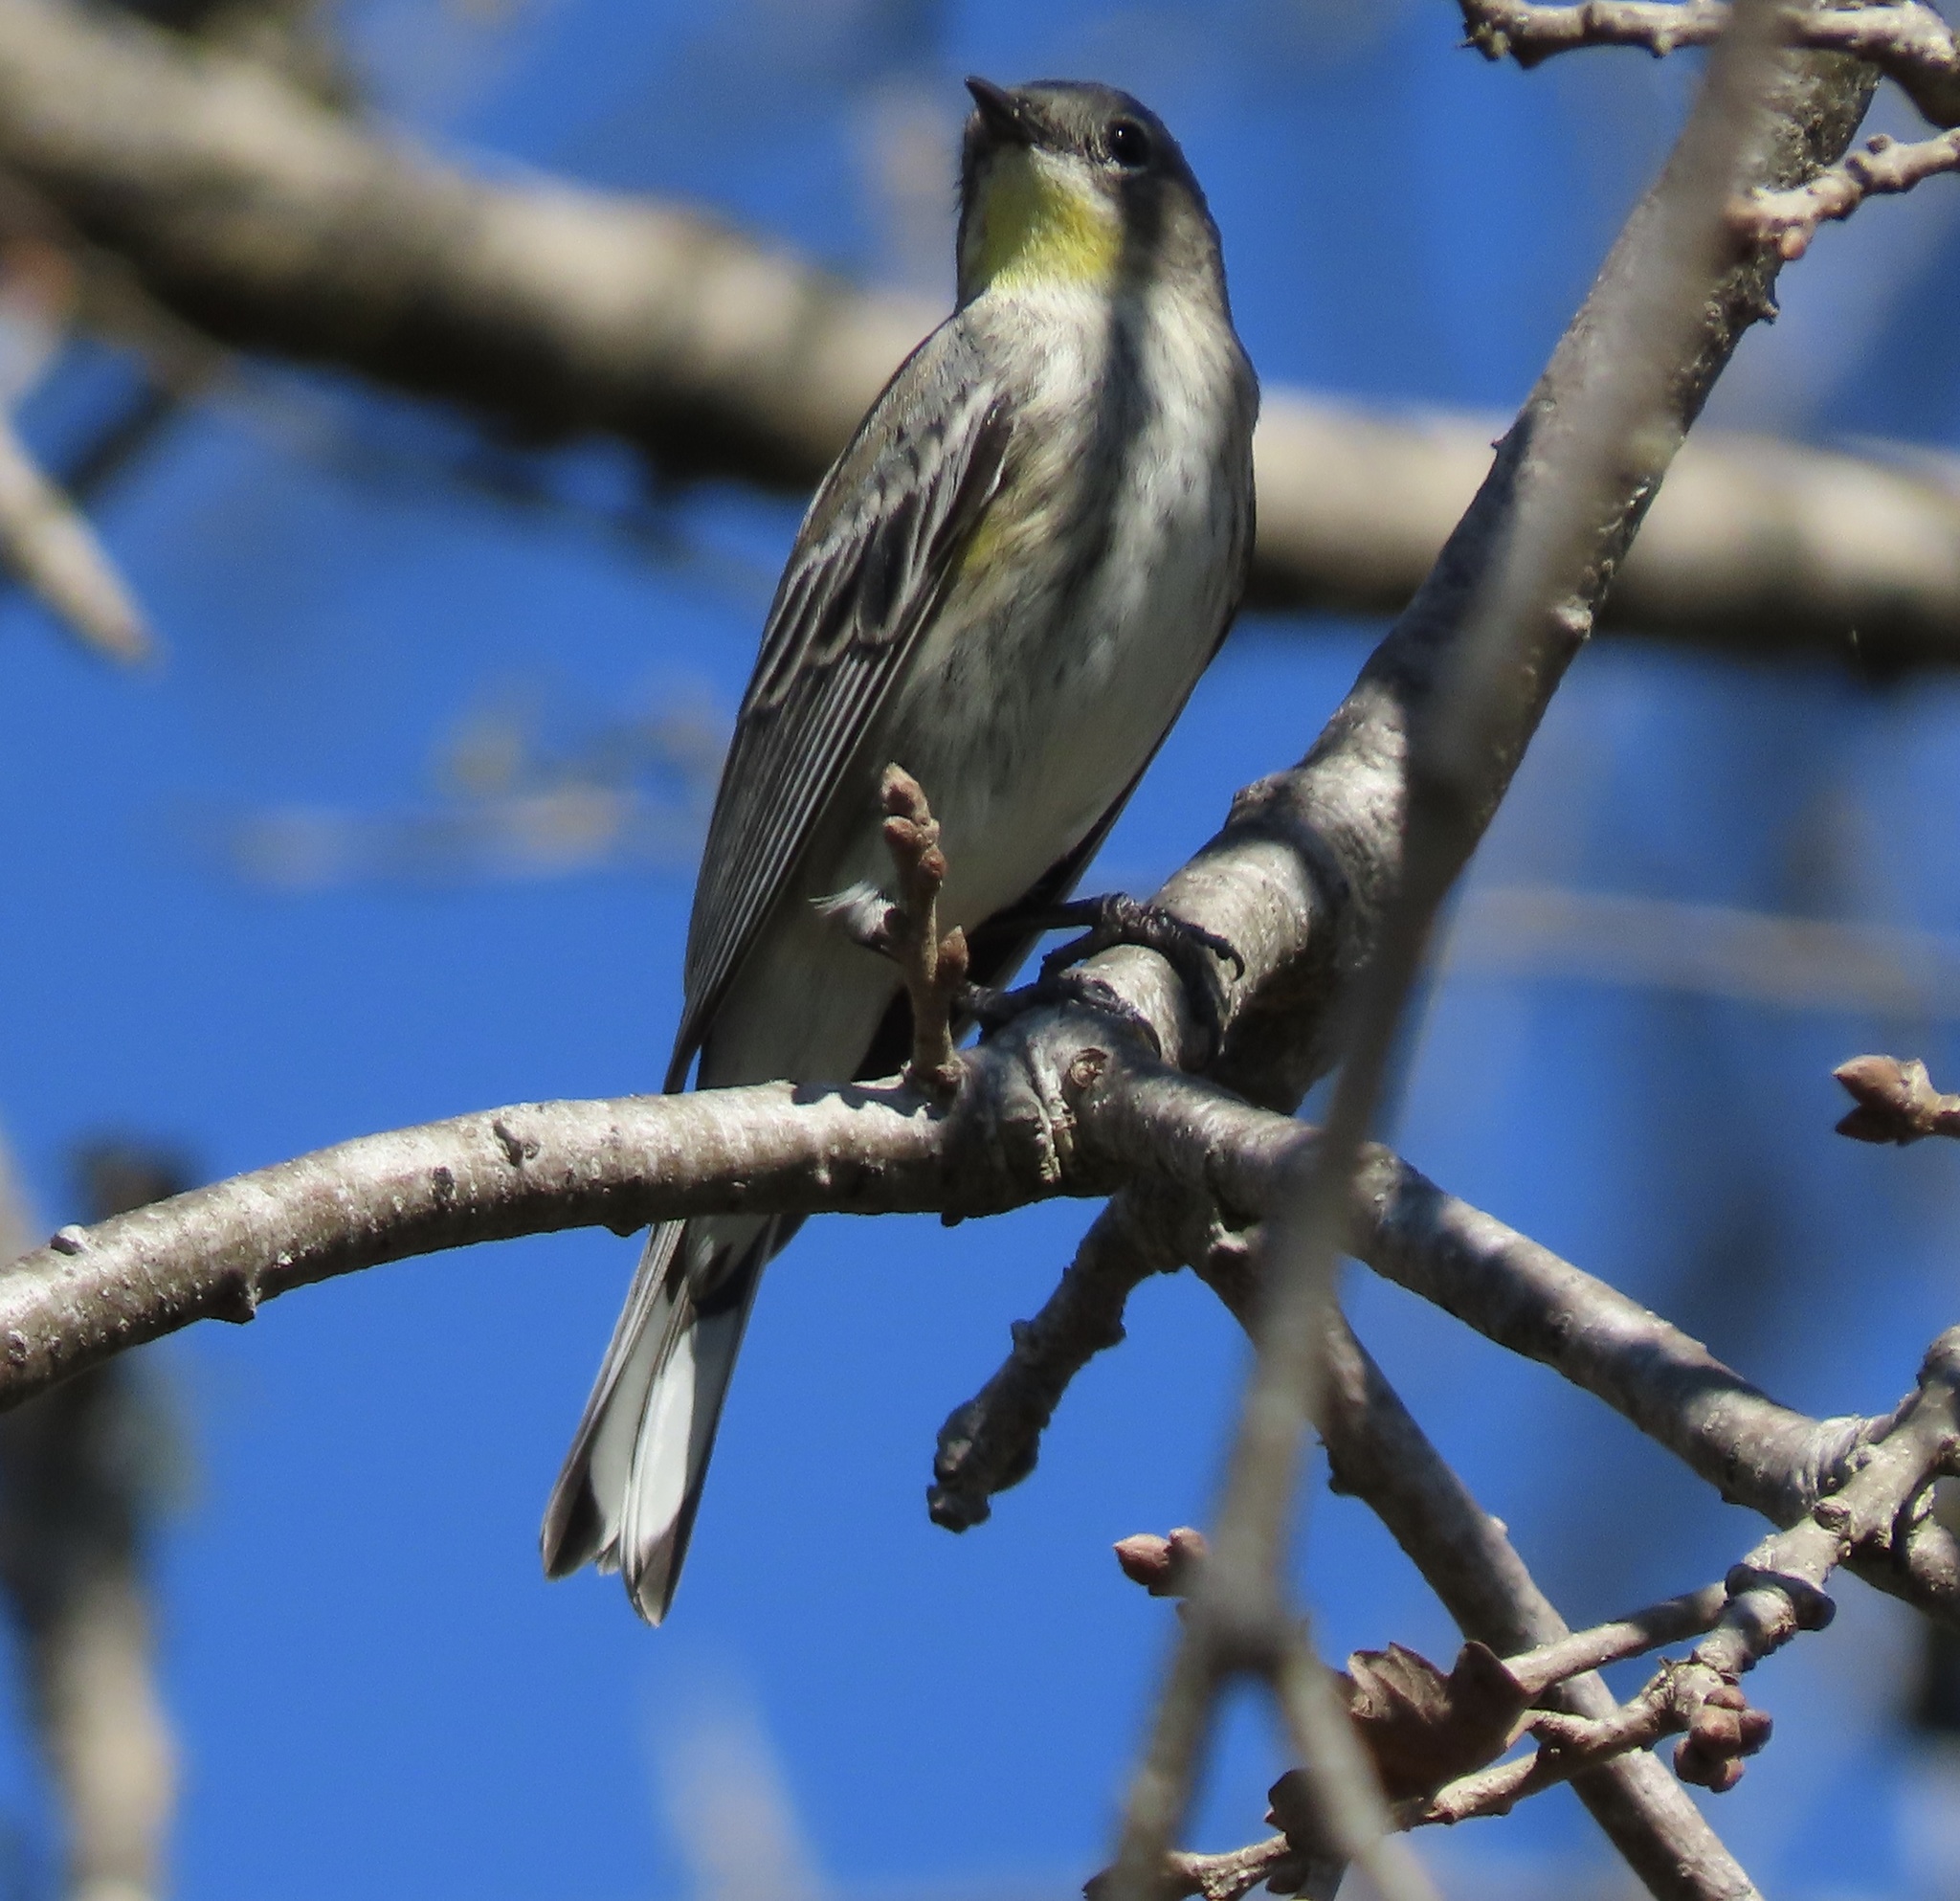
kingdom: Animalia
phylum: Chordata
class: Aves
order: Passeriformes
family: Parulidae
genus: Setophaga
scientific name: Setophaga coronata
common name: Myrtle warbler
